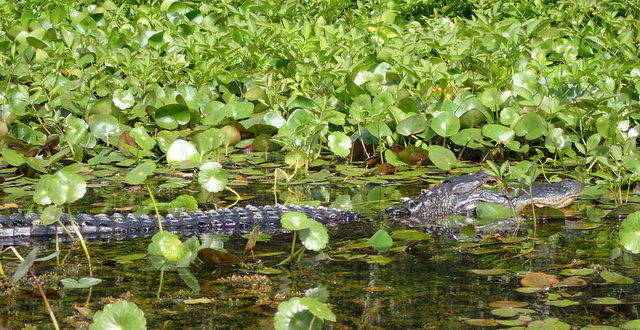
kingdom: Animalia
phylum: Chordata
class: Crocodylia
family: Alligatoridae
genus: Alligator
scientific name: Alligator mississippiensis
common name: American alligator
